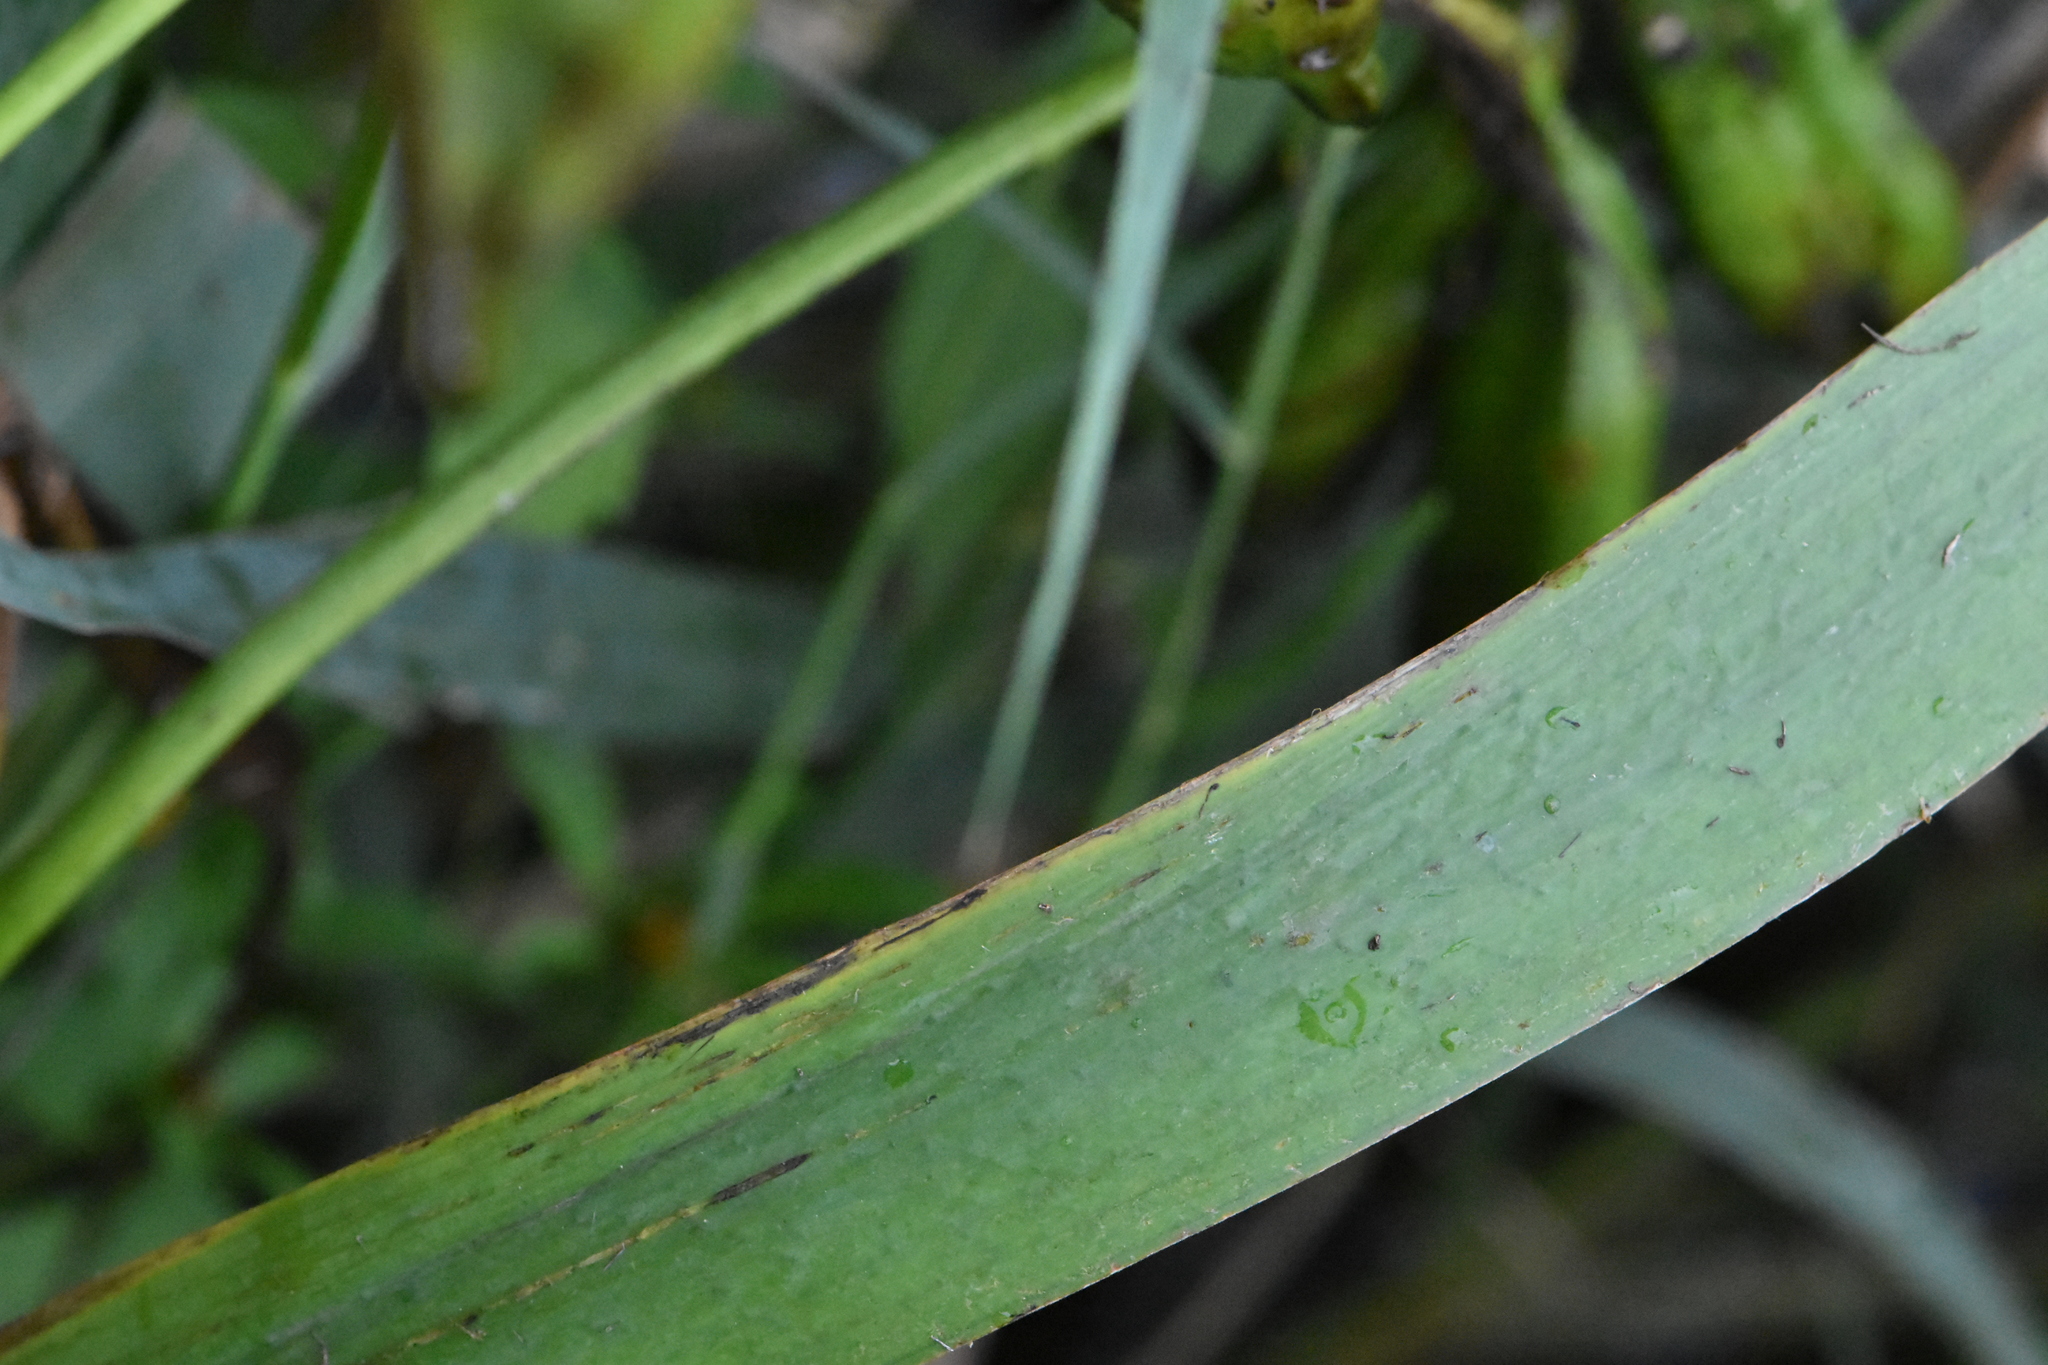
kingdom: Plantae
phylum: Tracheophyta
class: Liliopsida
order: Asparagales
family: Iridaceae
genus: Iris
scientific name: Iris pseudacorus
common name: Yellow flag
